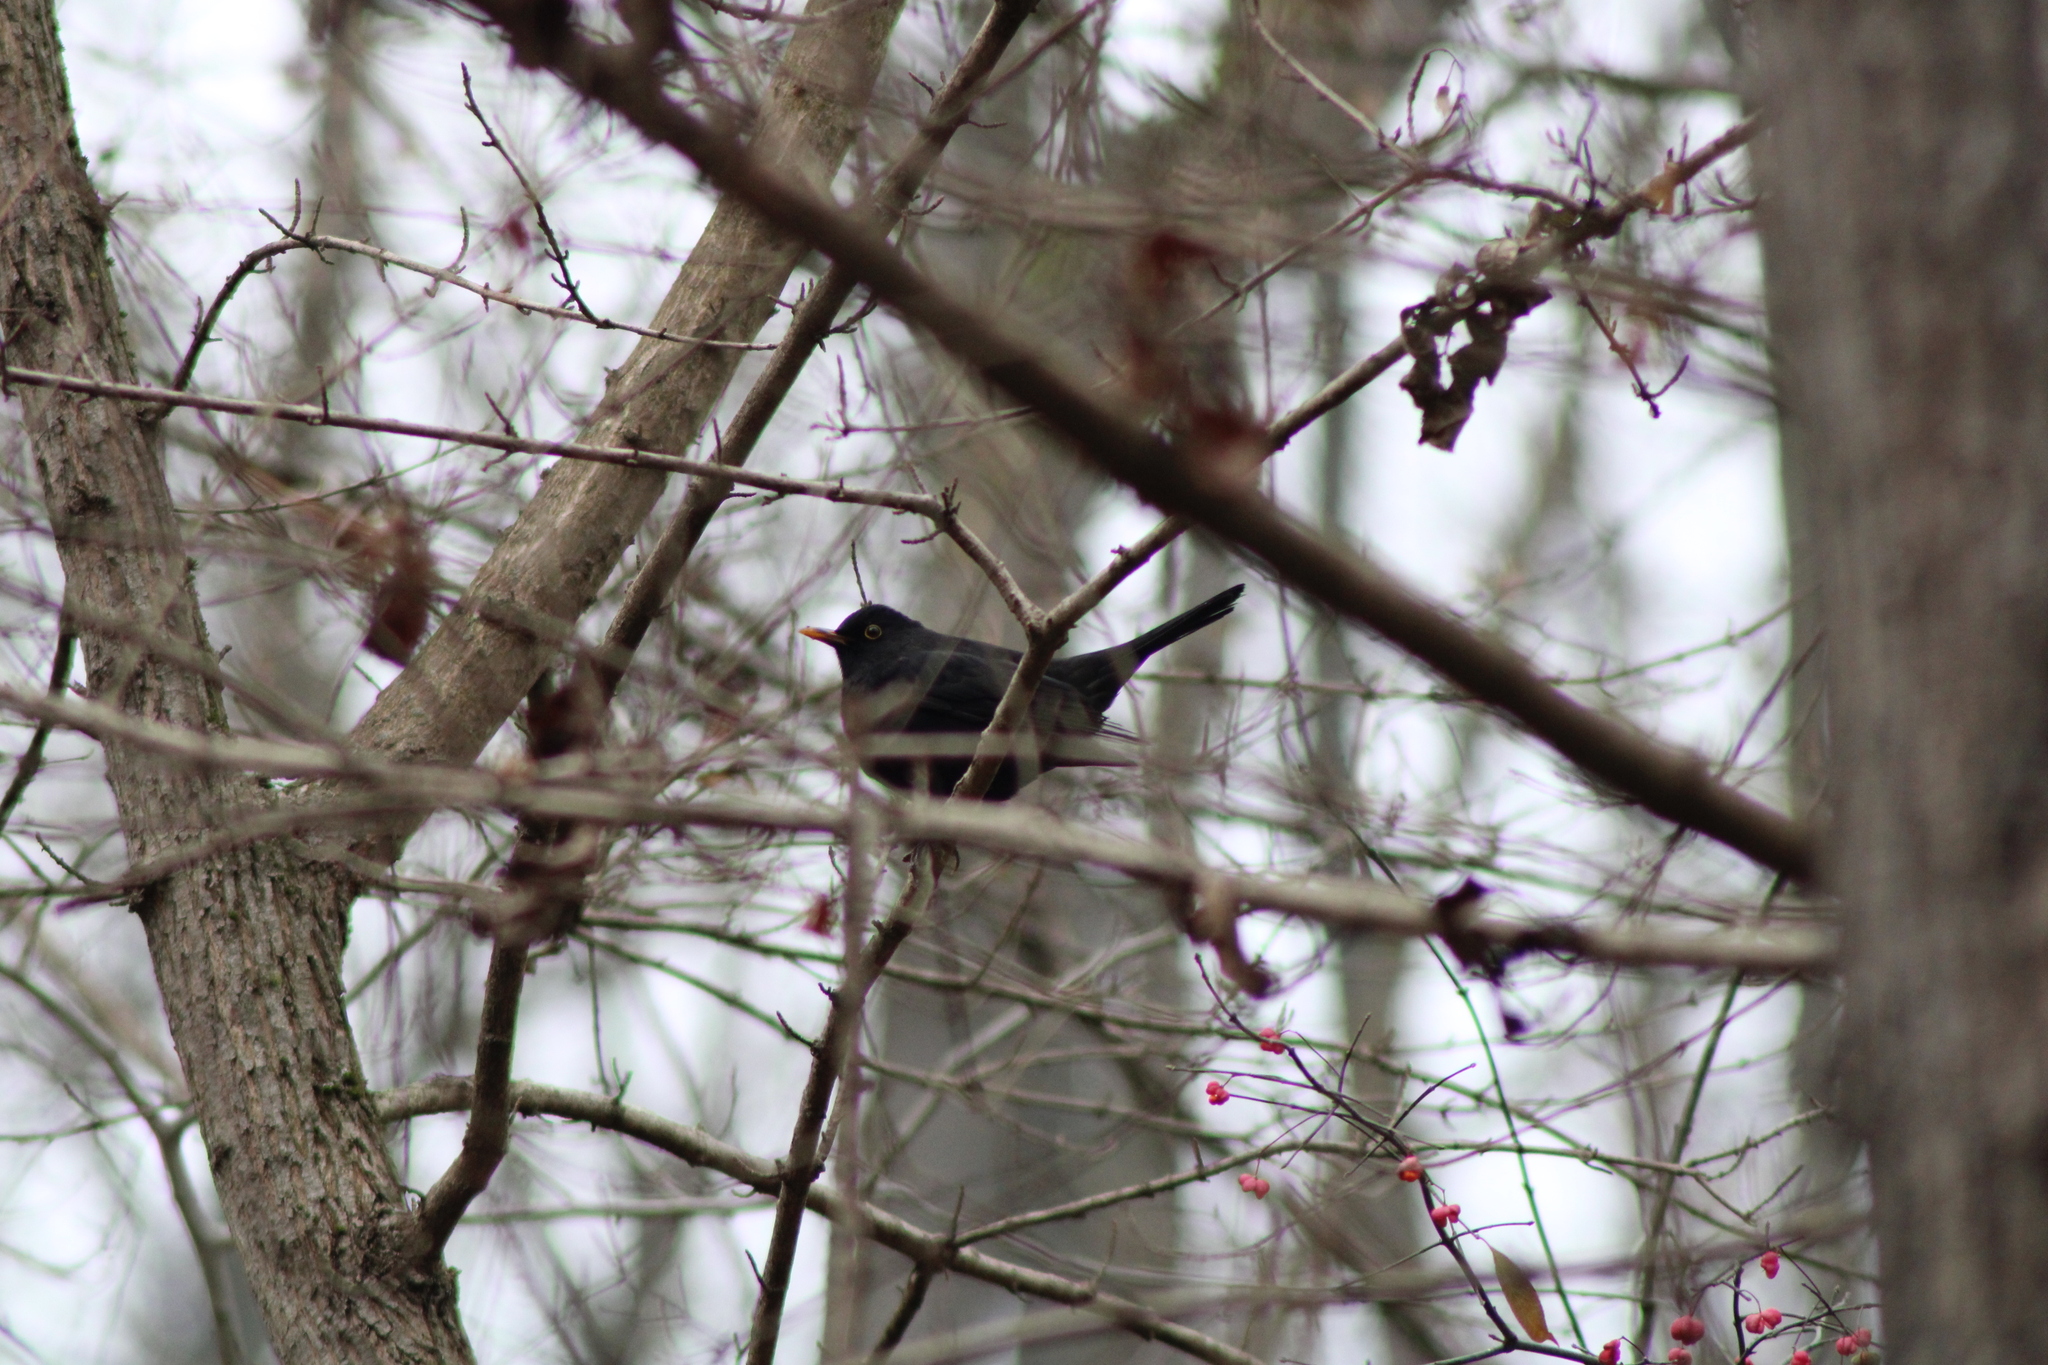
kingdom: Animalia
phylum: Chordata
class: Aves
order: Passeriformes
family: Turdidae
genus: Turdus
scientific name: Turdus merula
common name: Common blackbird
